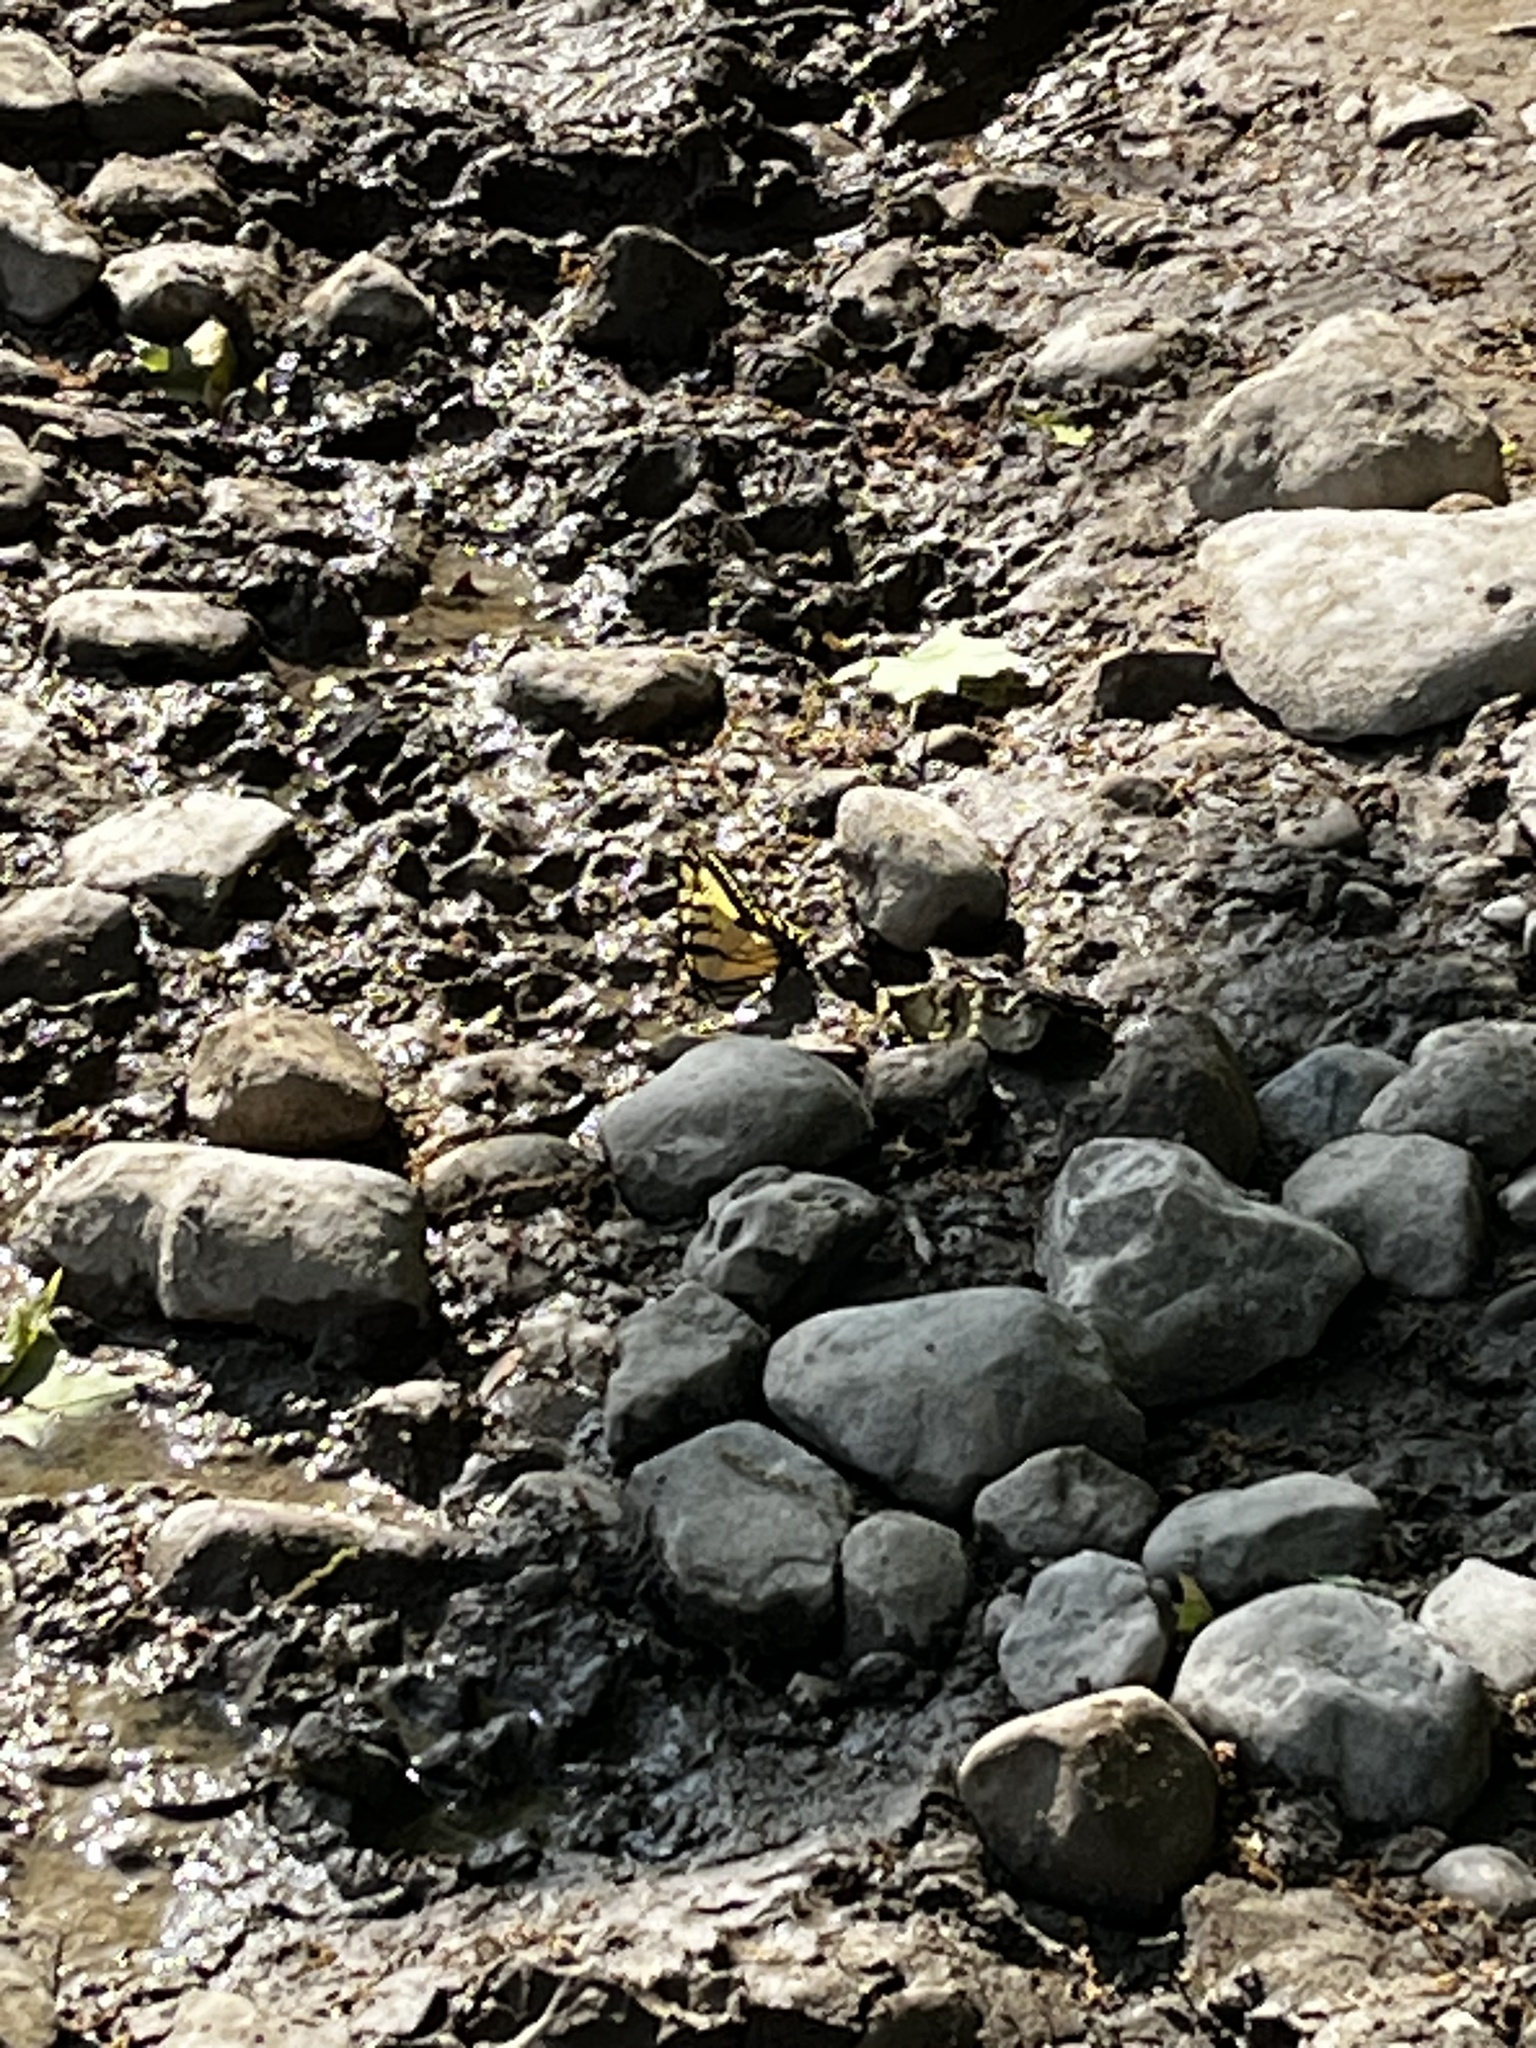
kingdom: Animalia
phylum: Arthropoda
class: Insecta
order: Lepidoptera
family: Papilionidae
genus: Papilio
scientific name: Papilio glaucus
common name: Tiger swallowtail
